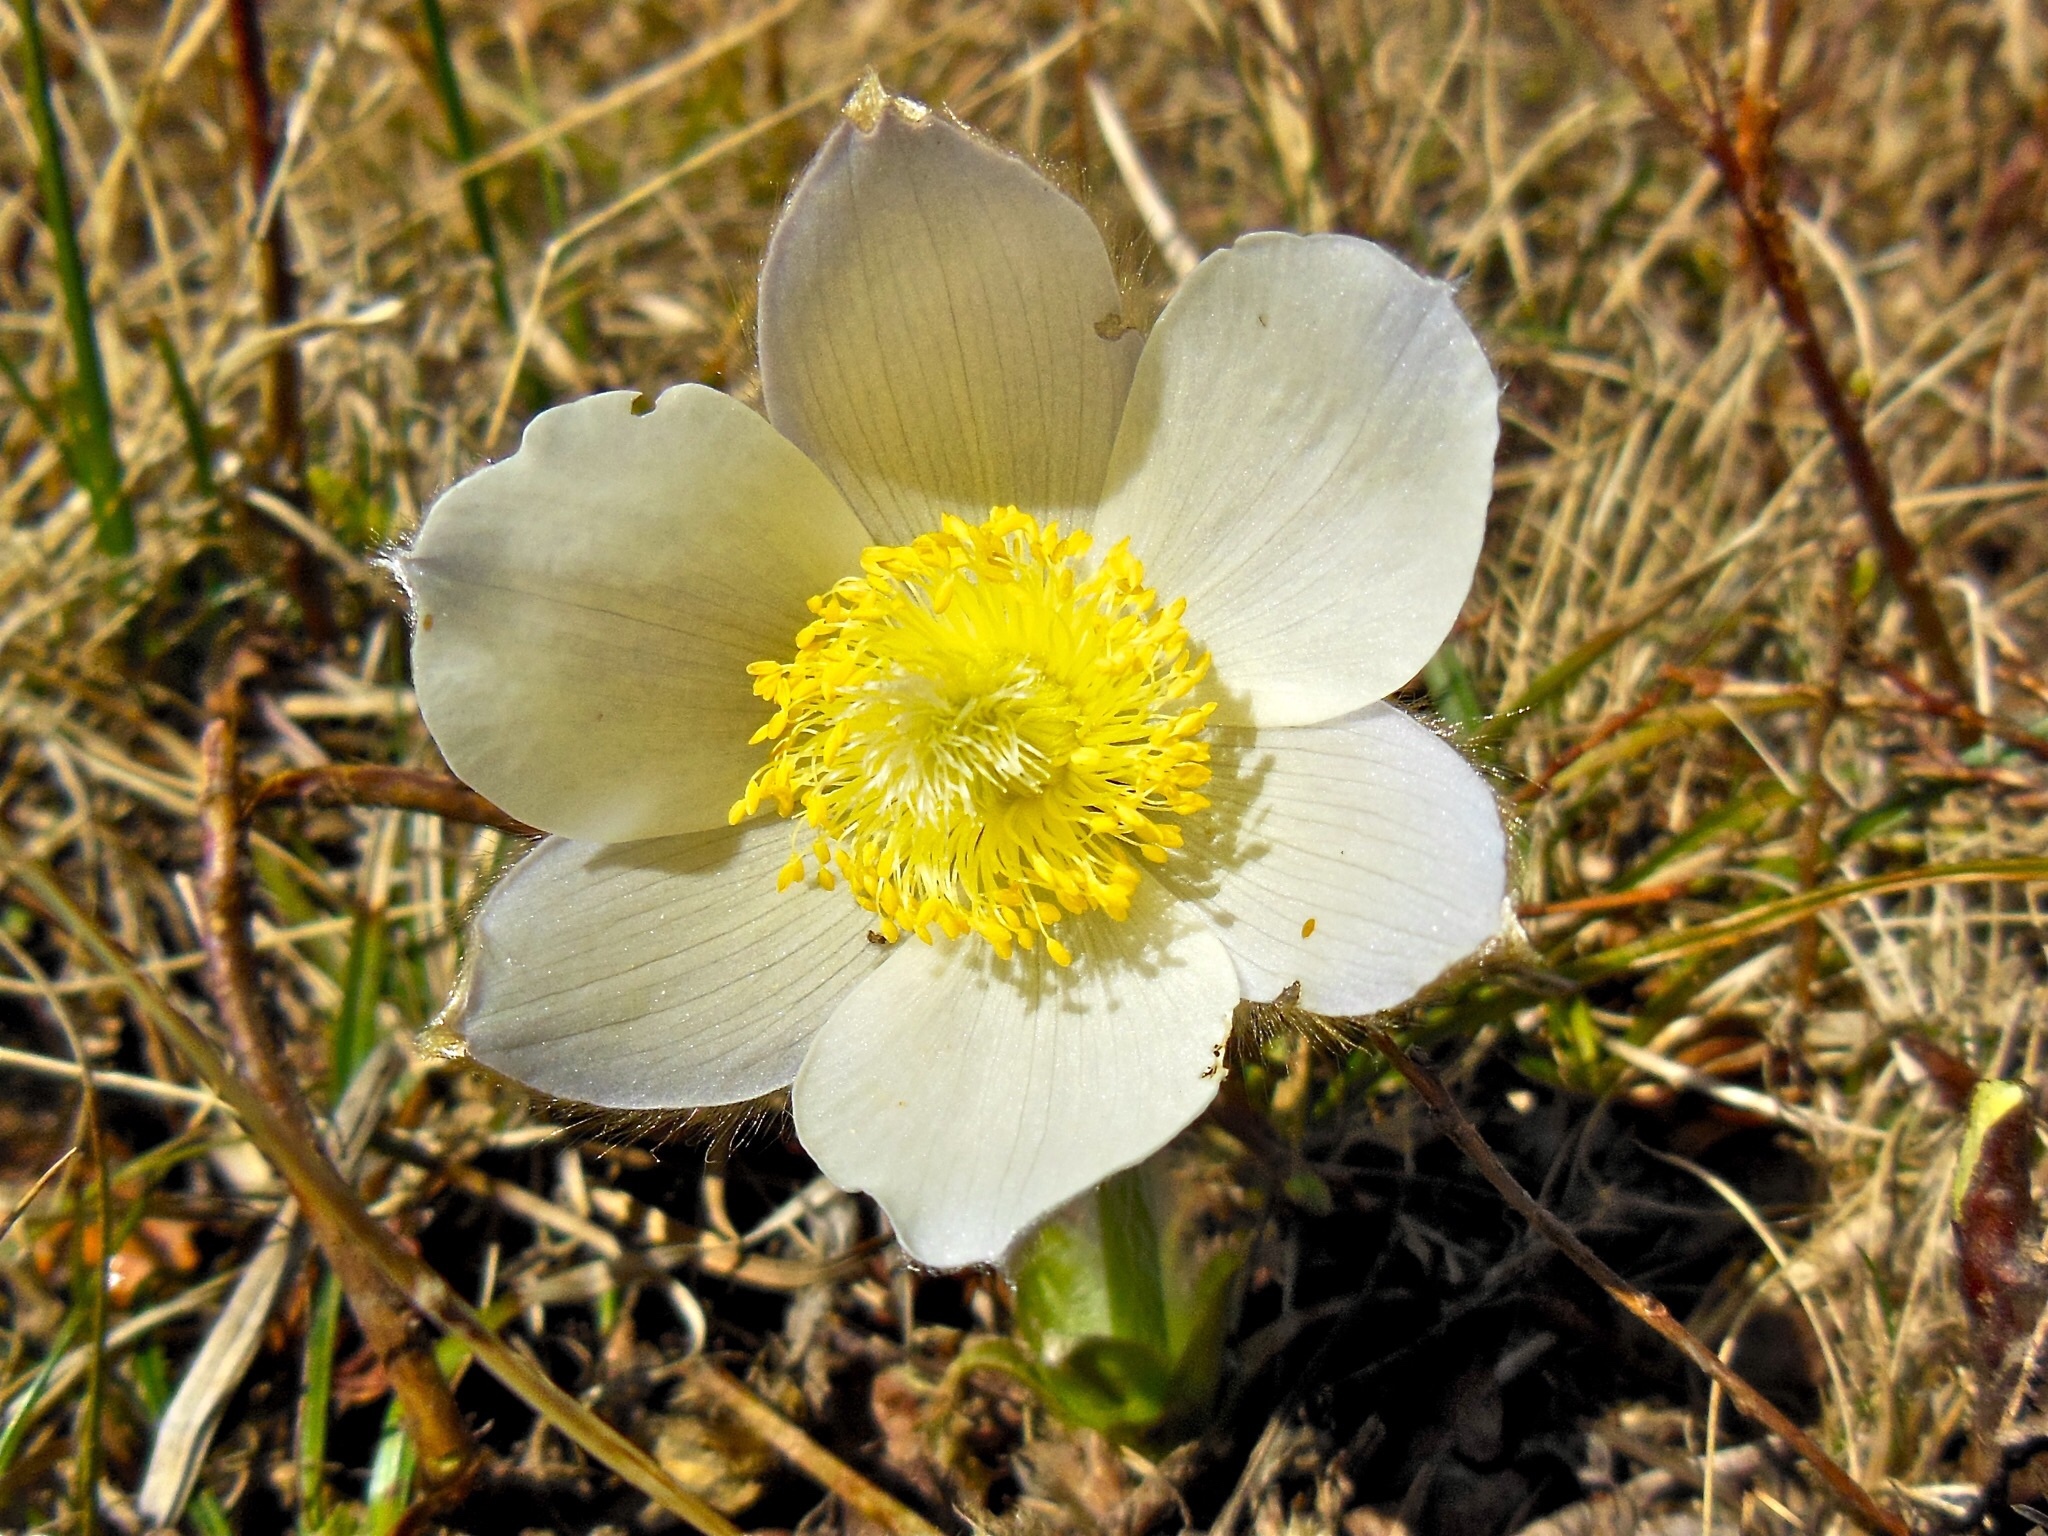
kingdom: Plantae
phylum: Tracheophyta
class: Magnoliopsida
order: Ranunculales
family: Ranunculaceae
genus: Pulsatilla
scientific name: Pulsatilla vernalis
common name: Spring pasque flower
